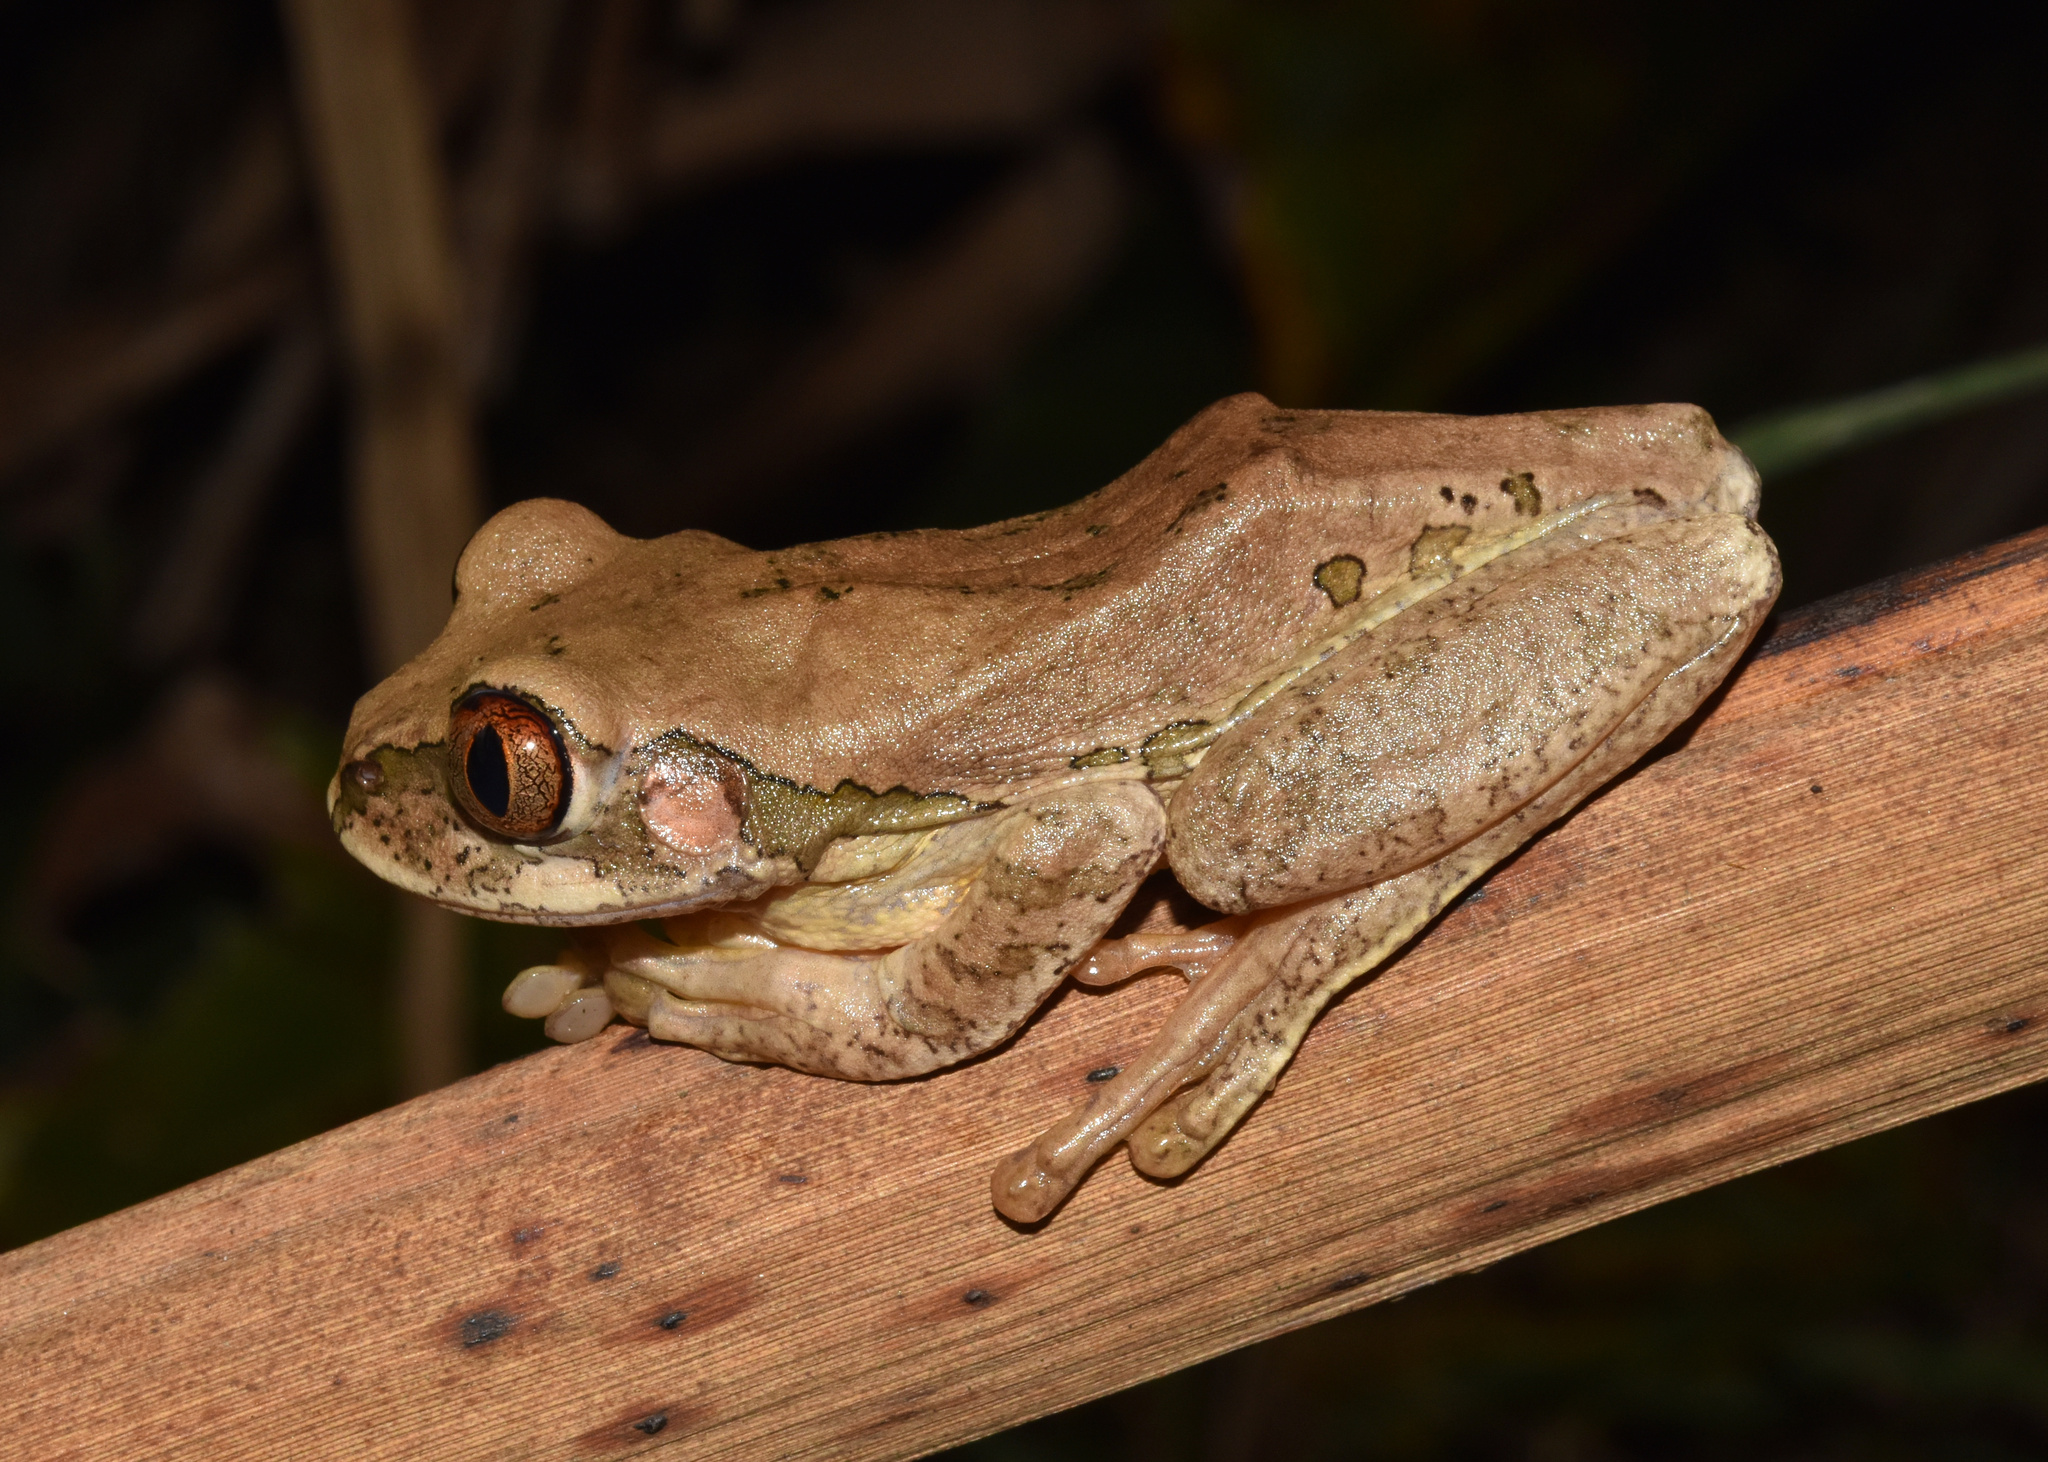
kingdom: Animalia
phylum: Chordata
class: Amphibia
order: Anura
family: Arthroleptidae
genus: Leptopelis
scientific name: Leptopelis natalensis
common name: Natal tree frog
